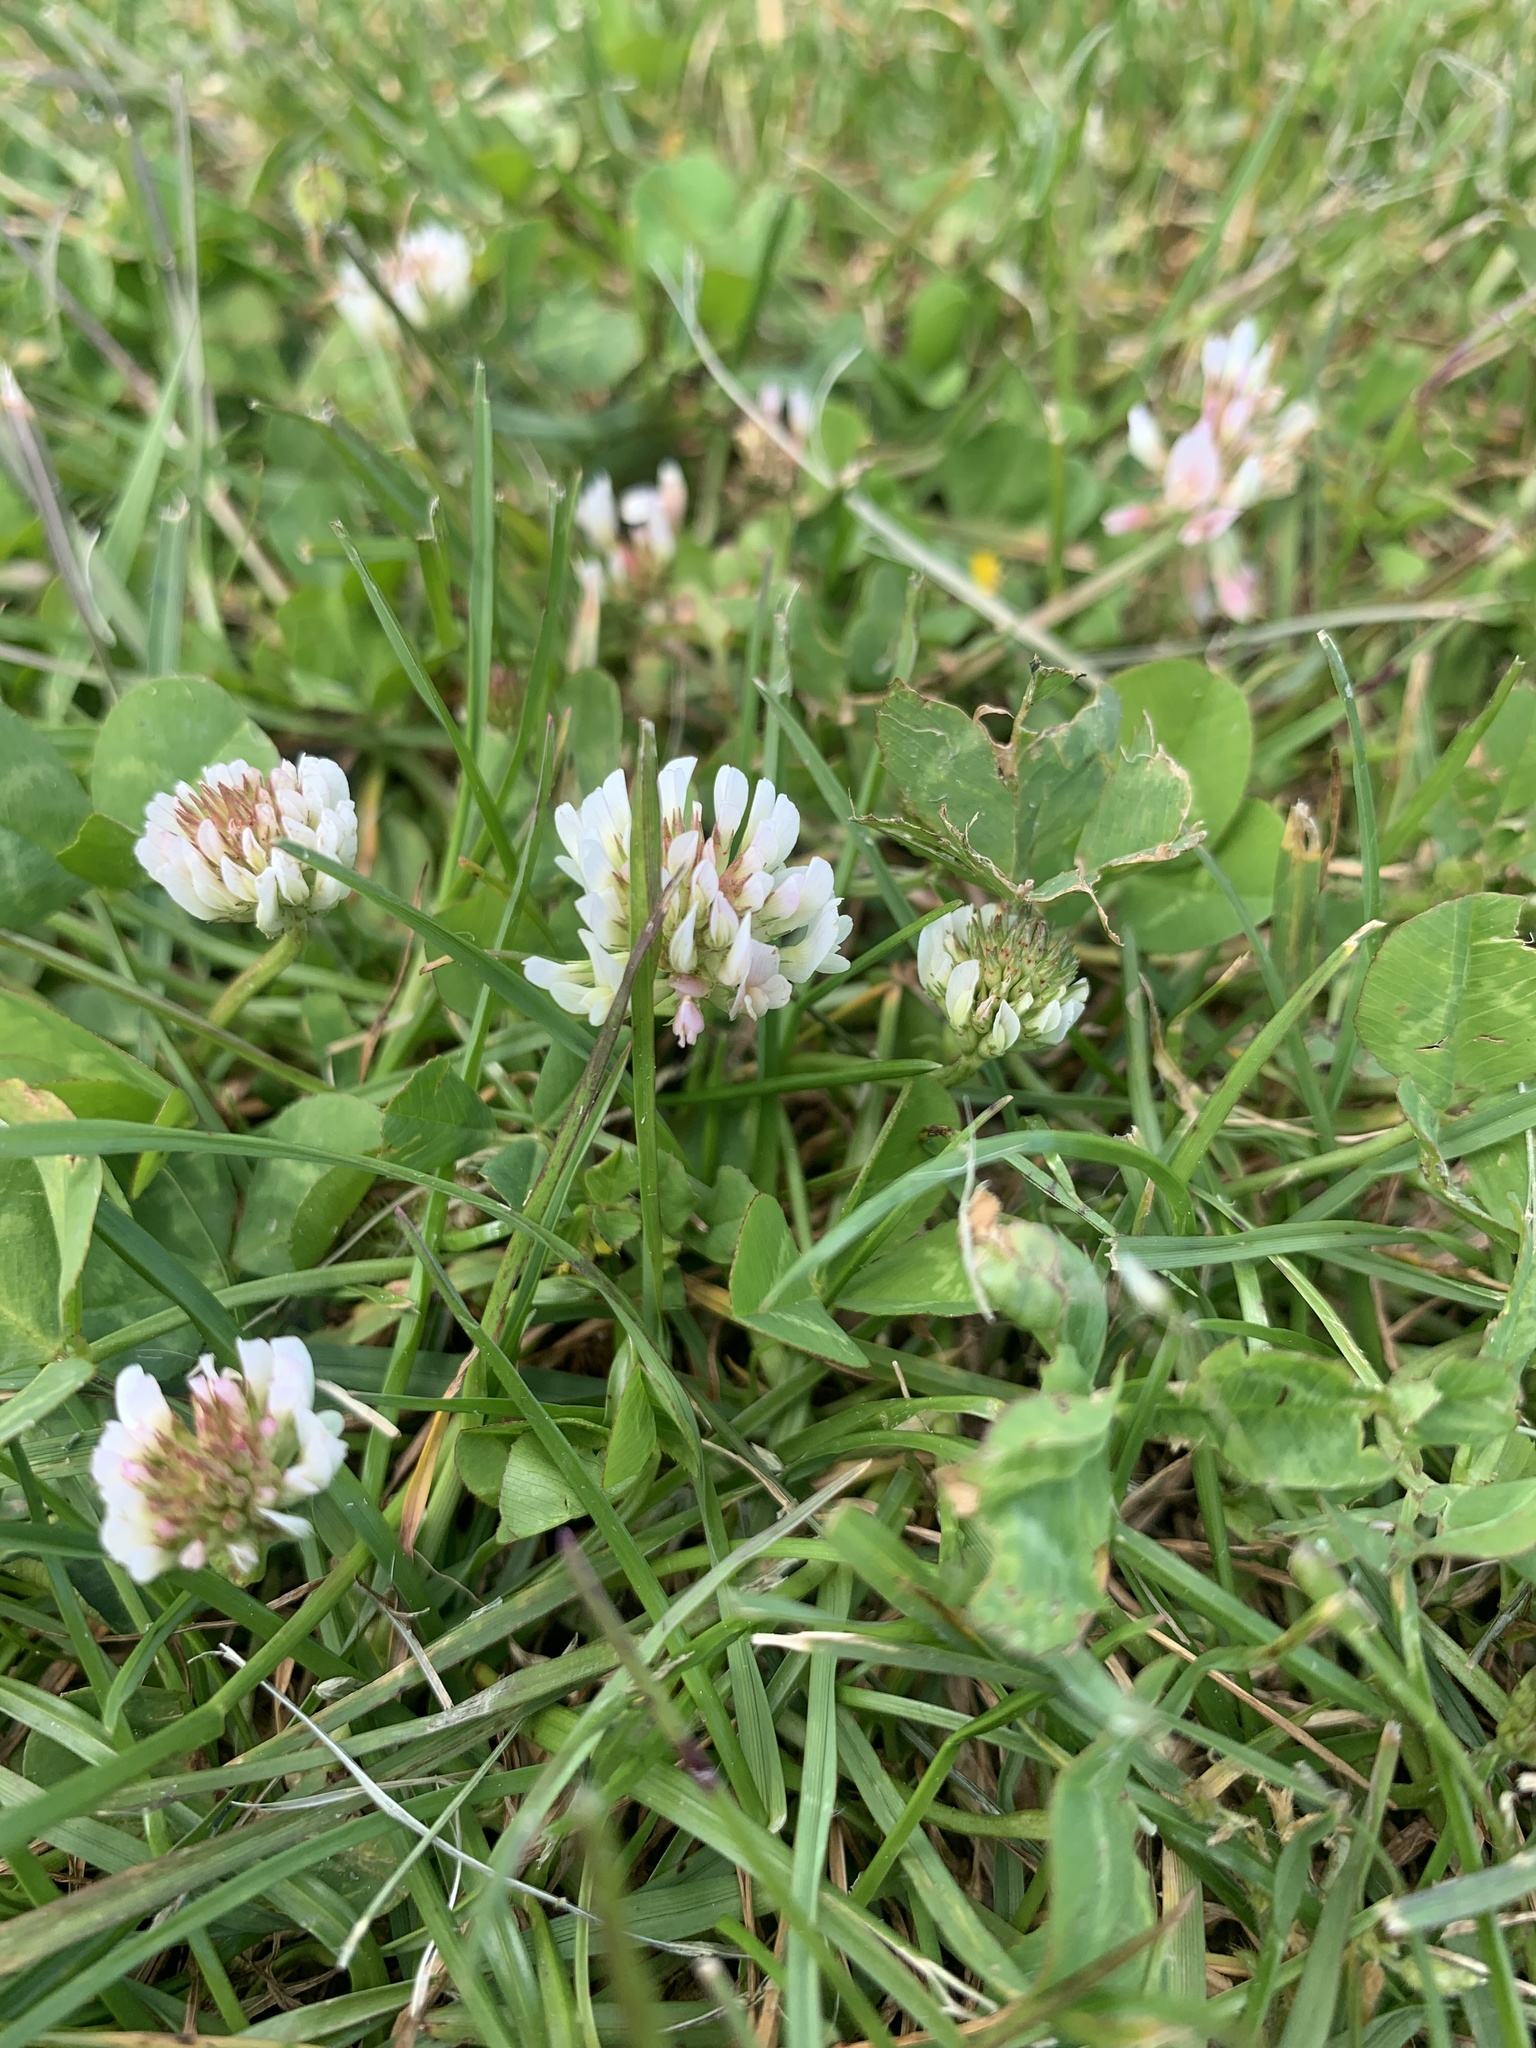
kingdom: Plantae
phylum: Tracheophyta
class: Magnoliopsida
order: Fabales
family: Fabaceae
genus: Trifolium
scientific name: Trifolium repens
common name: White clover
